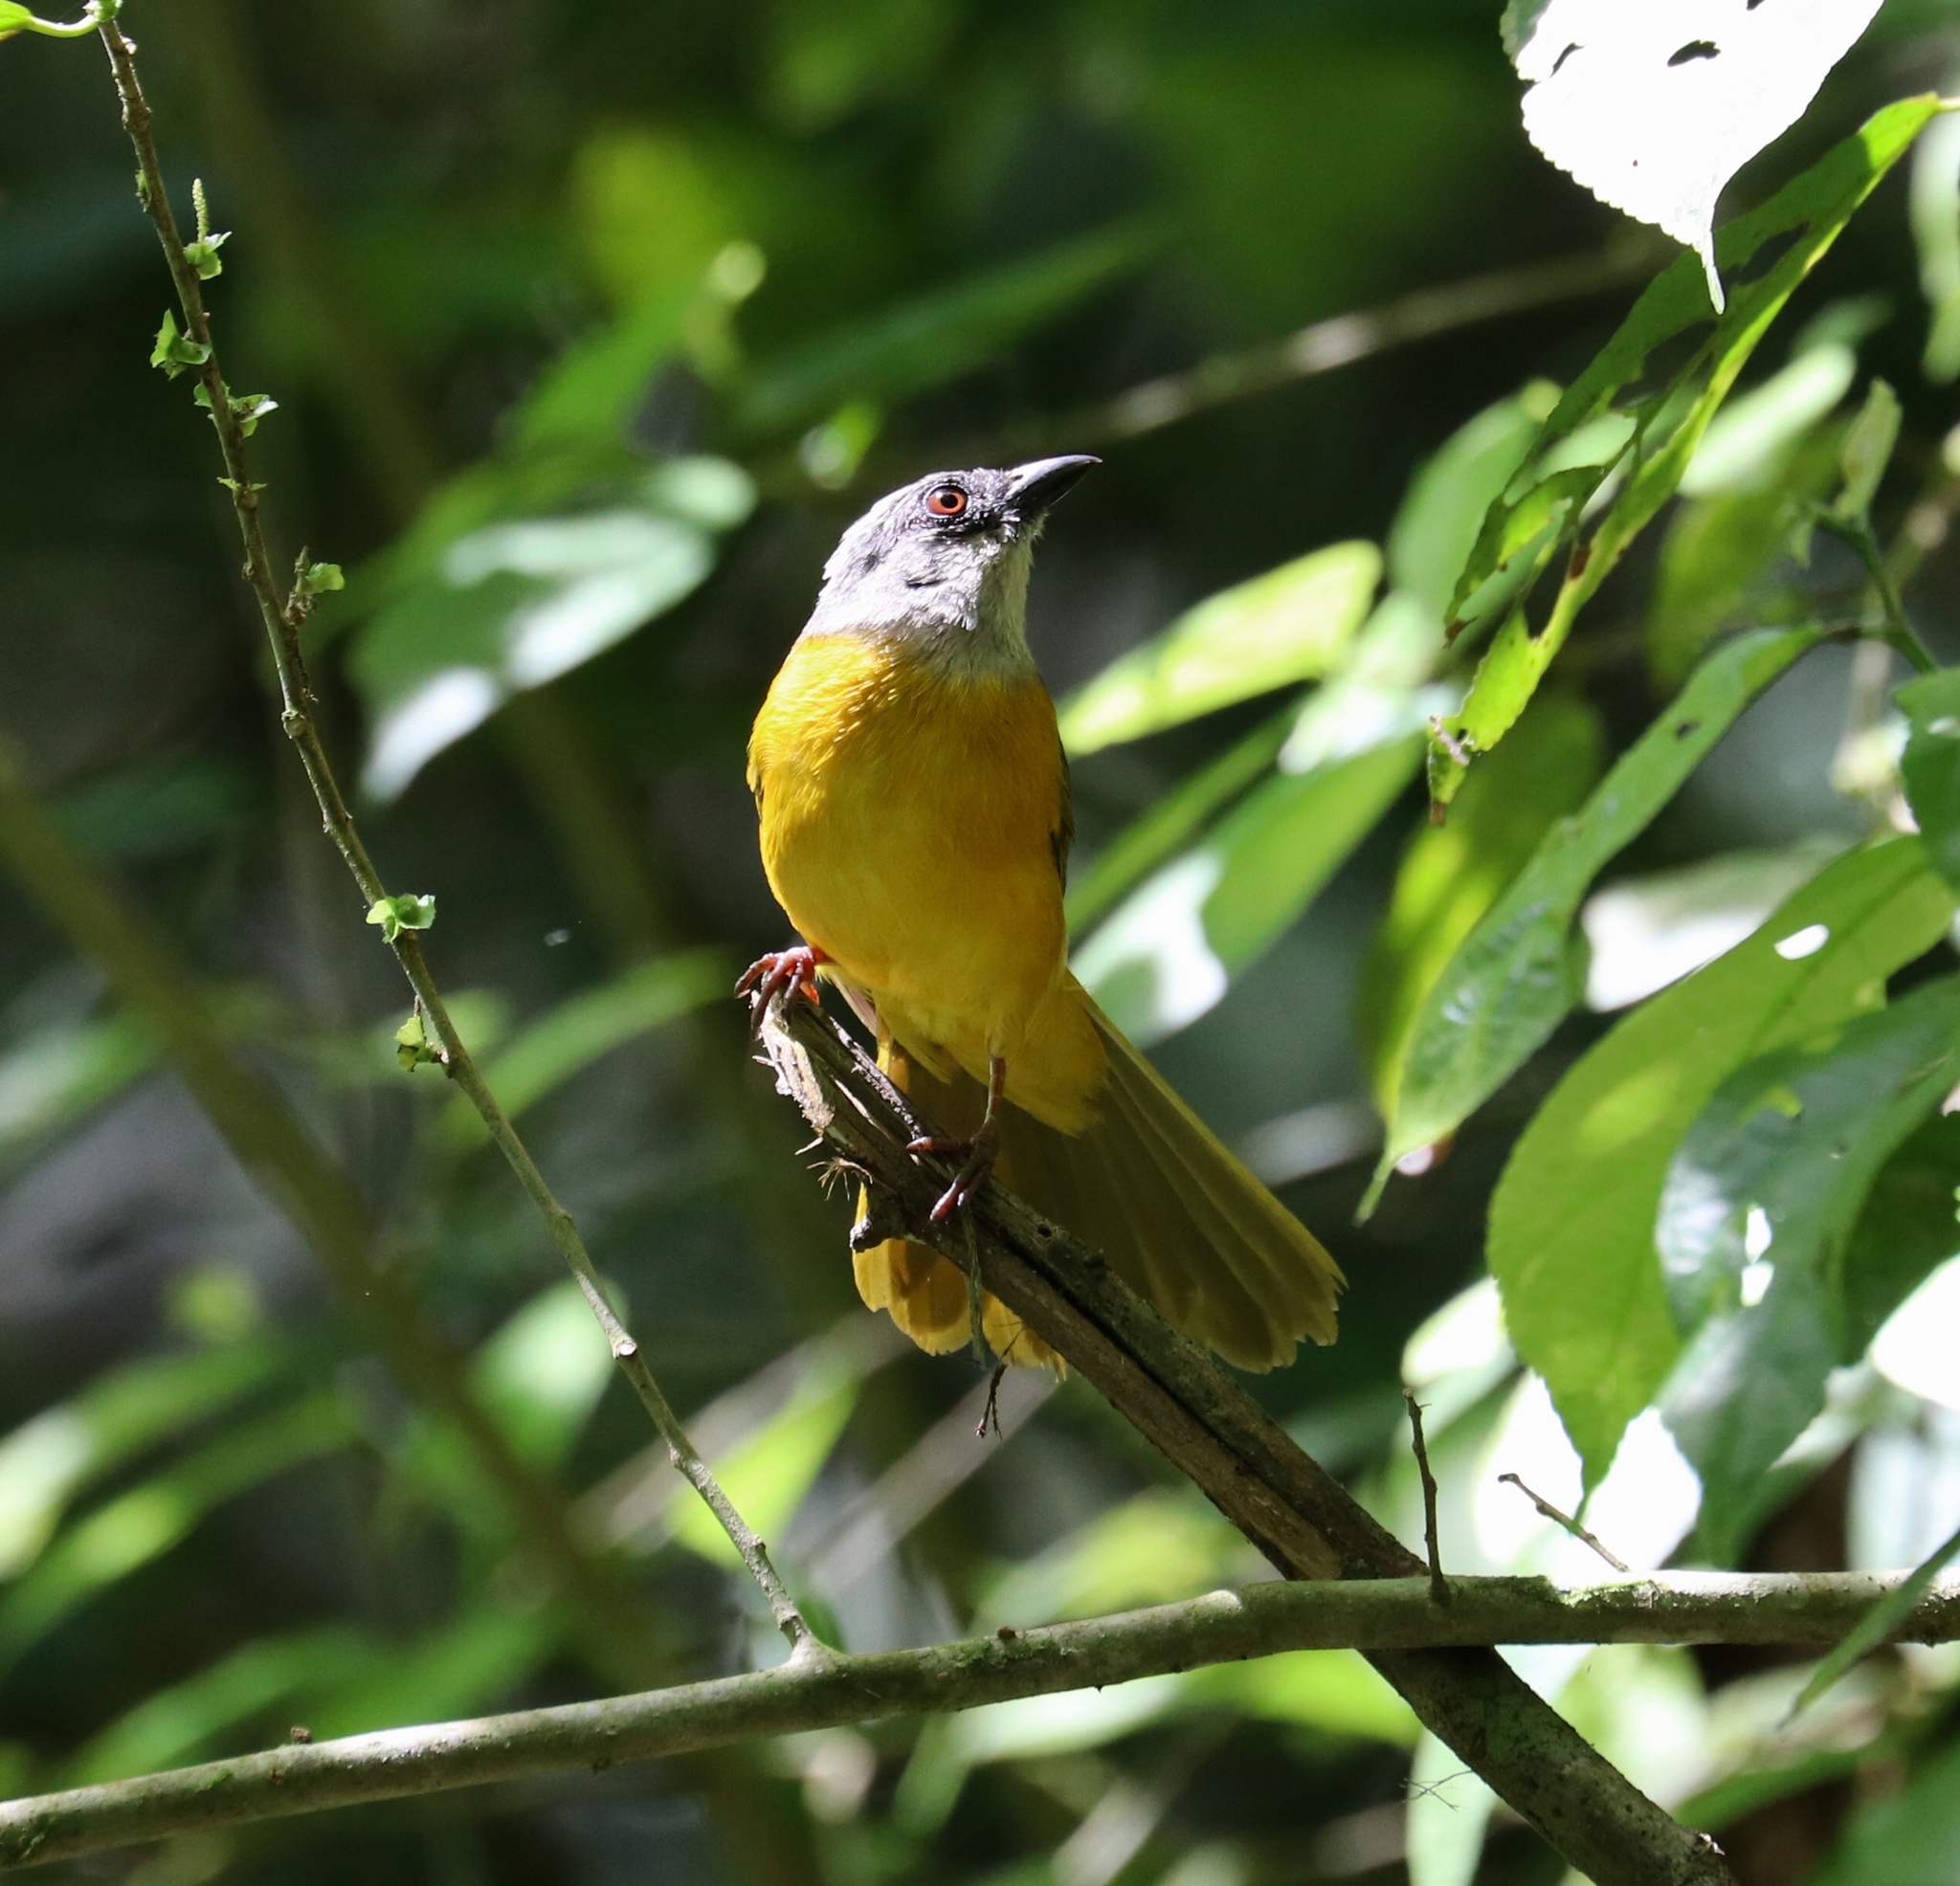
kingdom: Animalia
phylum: Chordata
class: Aves
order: Passeriformes
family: Thraupidae
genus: Eucometis
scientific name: Eucometis penicillata
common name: Grey-headed tanager
